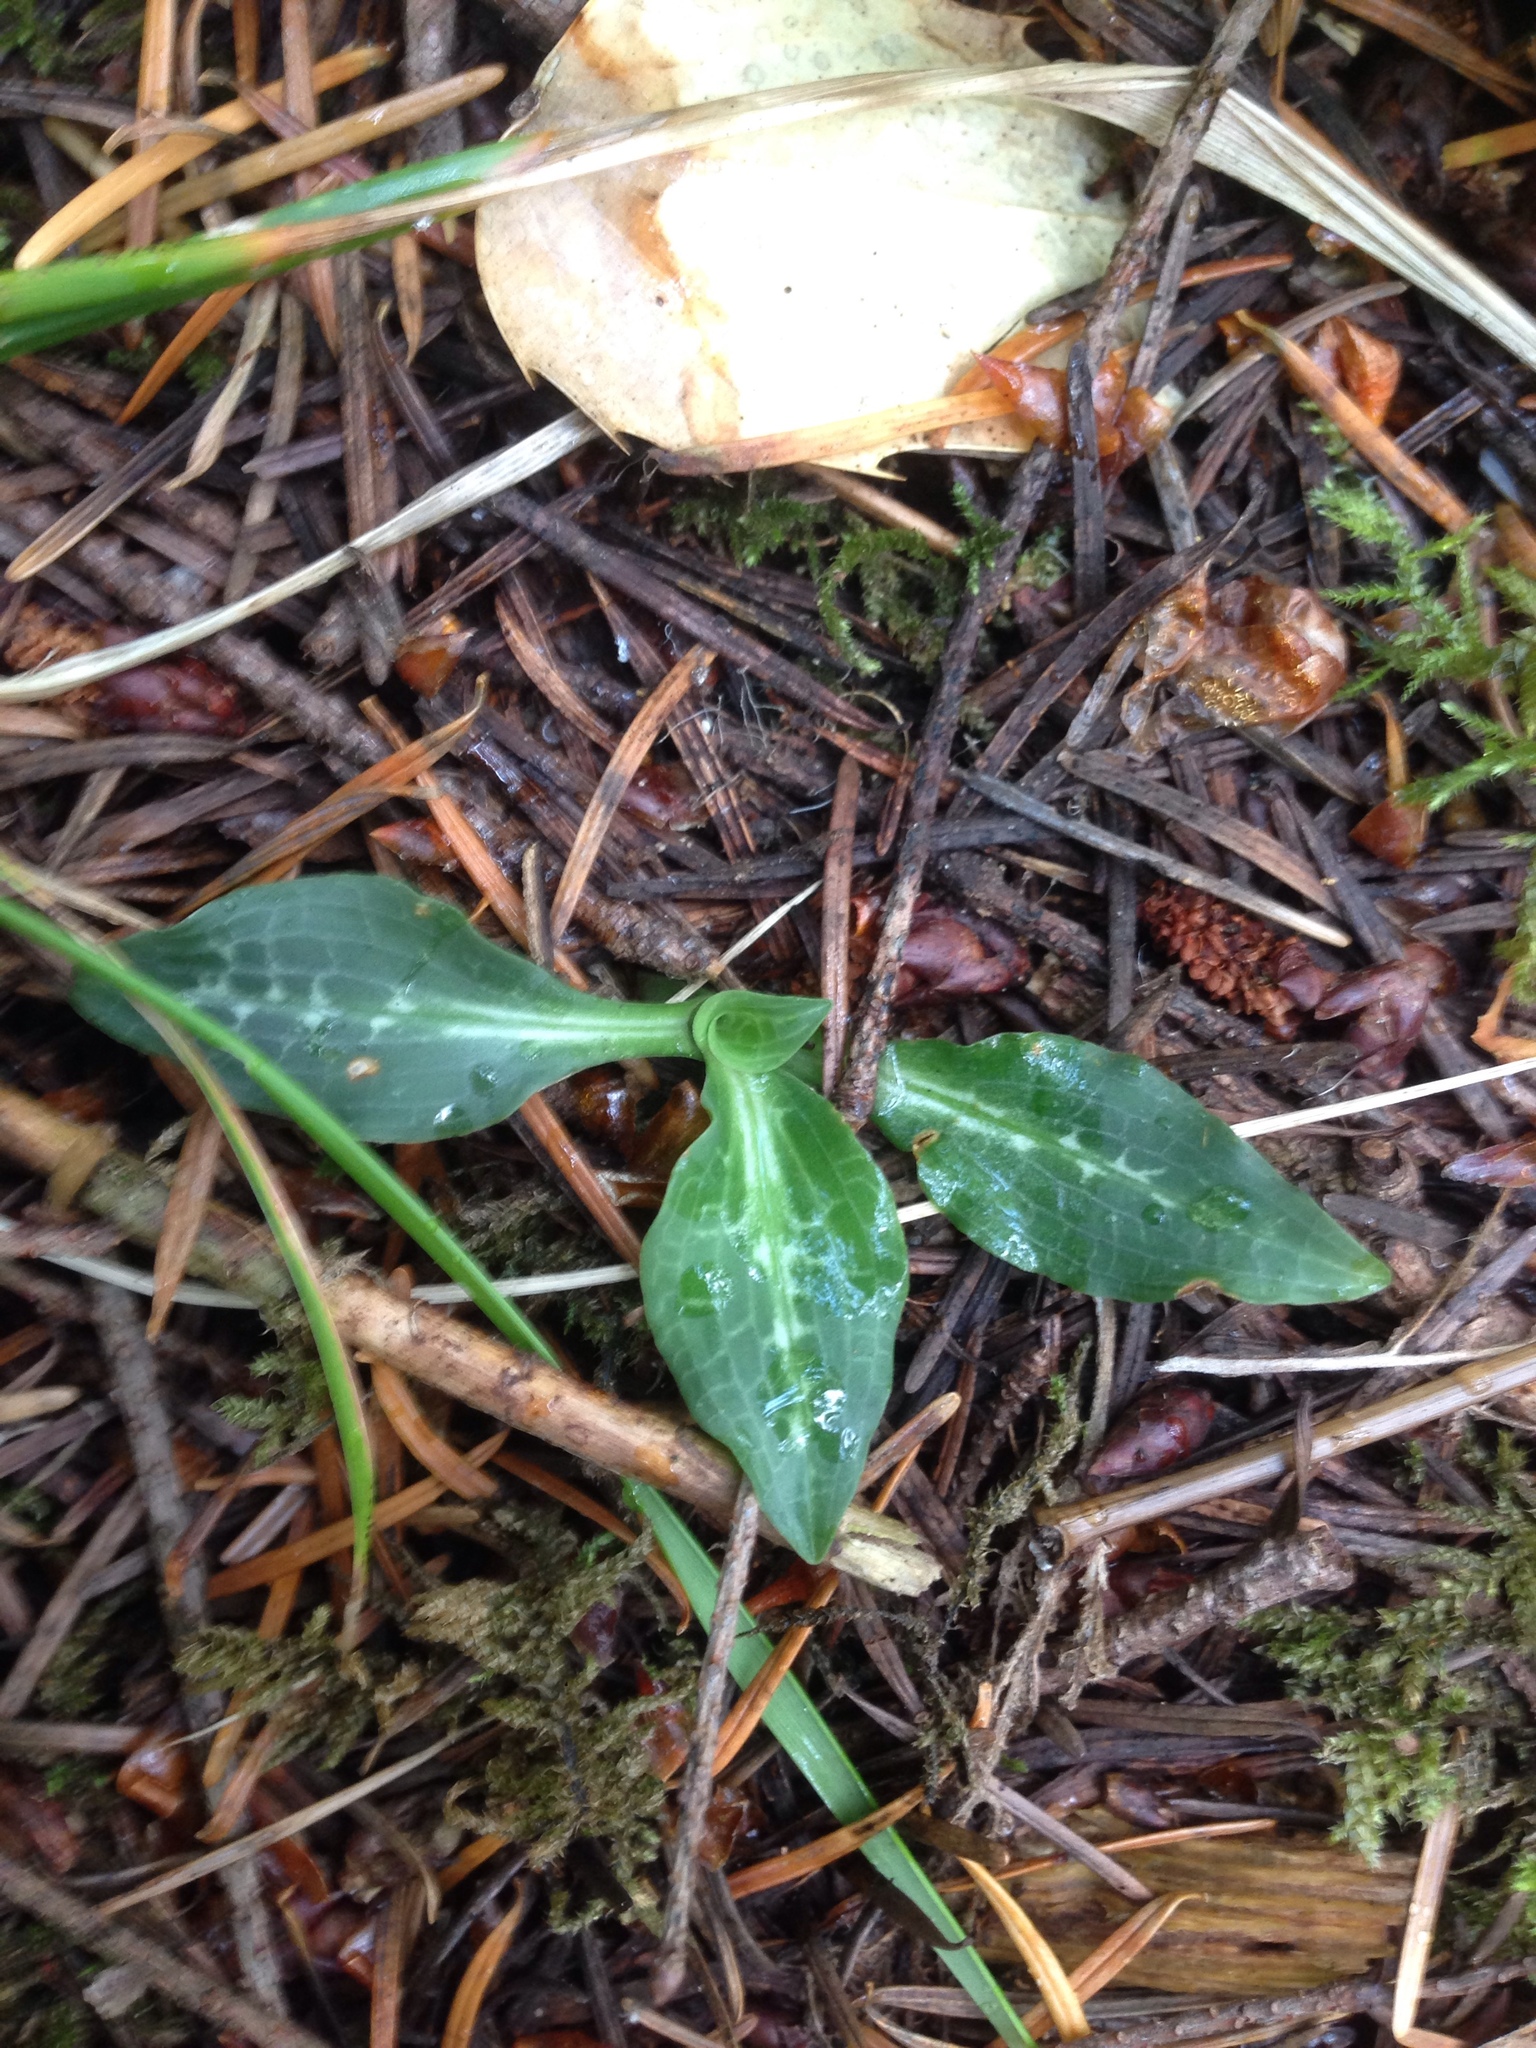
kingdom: Plantae
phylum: Tracheophyta
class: Liliopsida
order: Asparagales
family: Orchidaceae
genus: Goodyera
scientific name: Goodyera oblongifolia
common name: Giant rattlesnake-plantain
